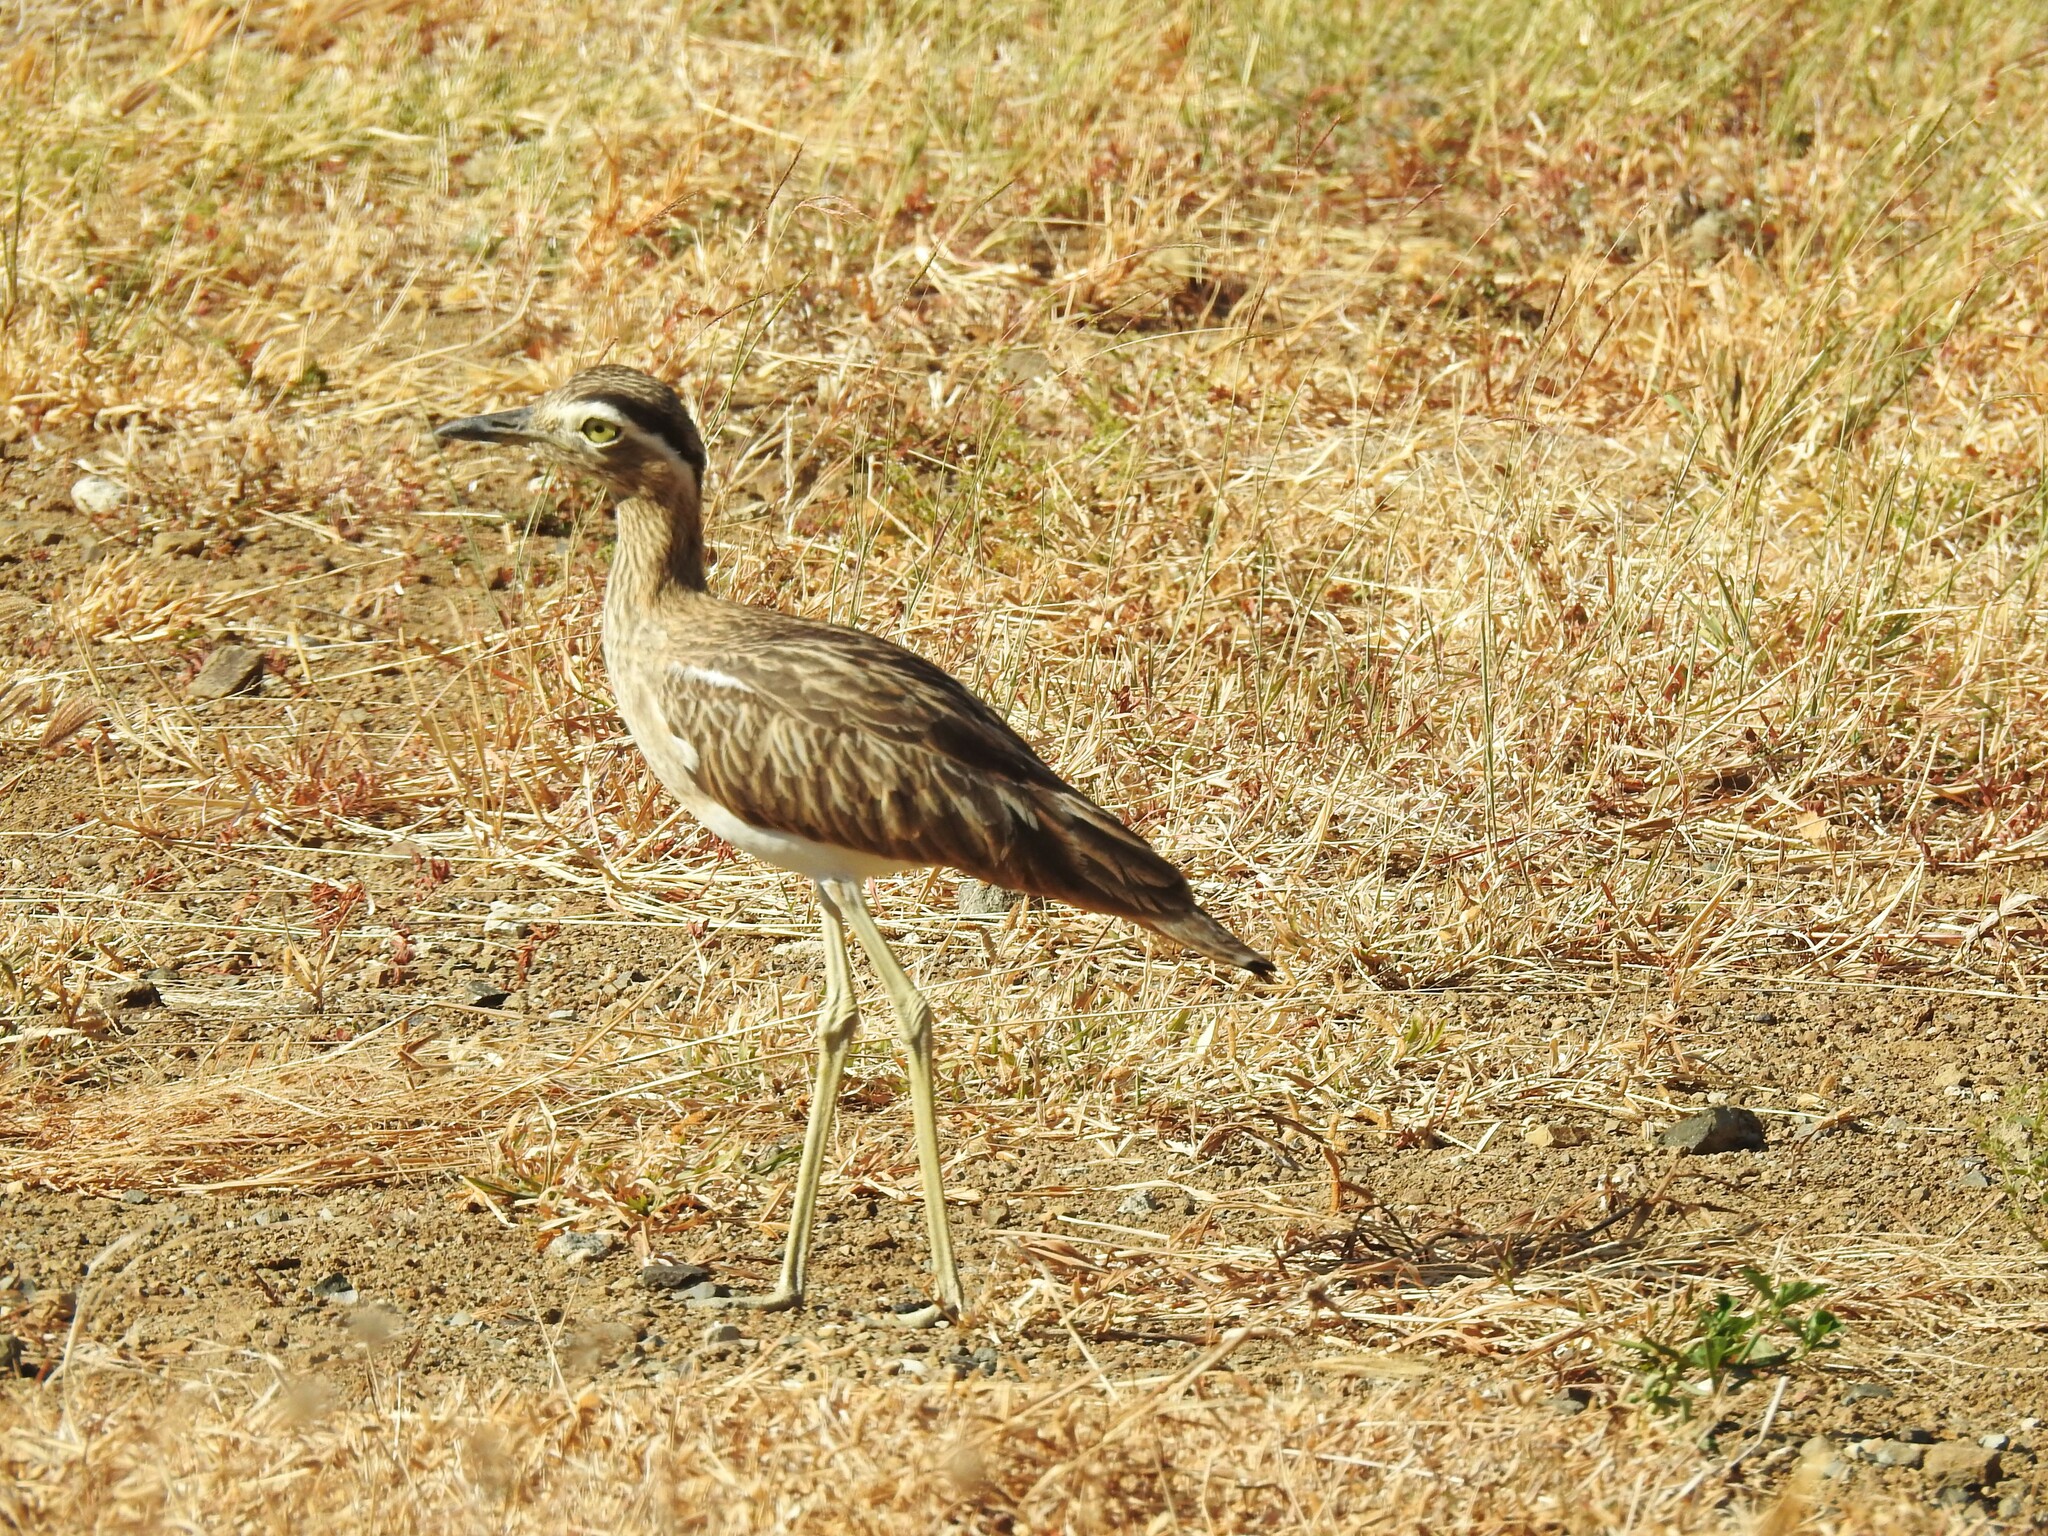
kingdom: Animalia
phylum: Chordata
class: Aves
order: Charadriiformes
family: Burhinidae
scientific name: Burhinidae
